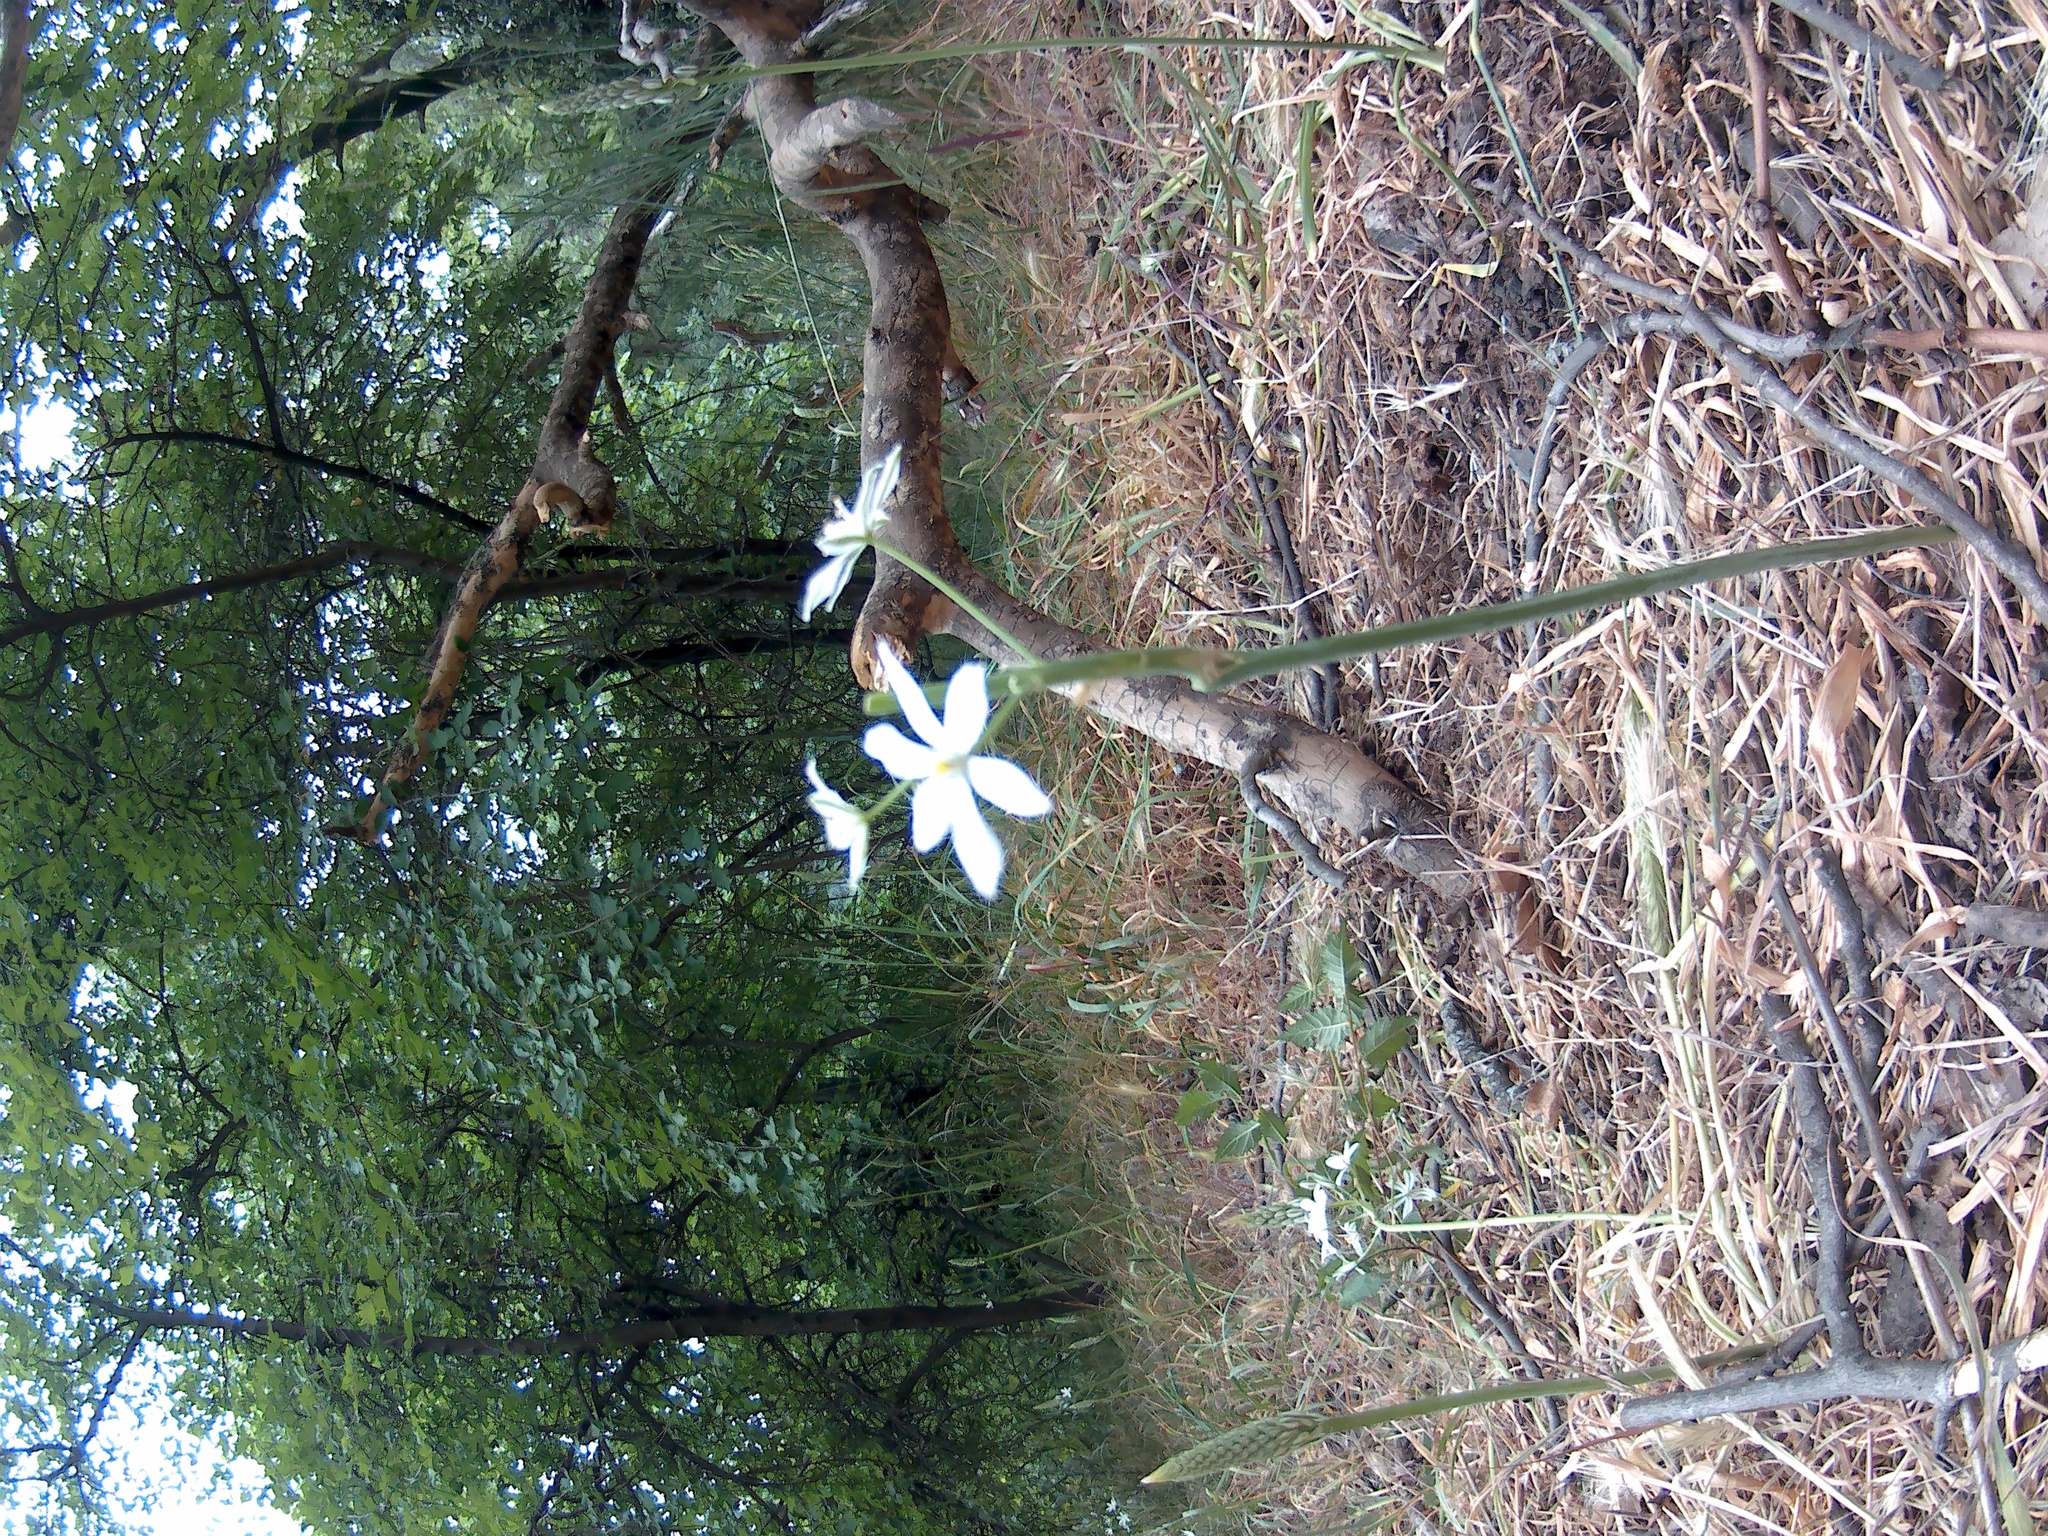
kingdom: Plantae
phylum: Tracheophyta
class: Liliopsida
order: Asparagales
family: Asparagaceae
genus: Ornithogalum
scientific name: Ornithogalum ponticum
